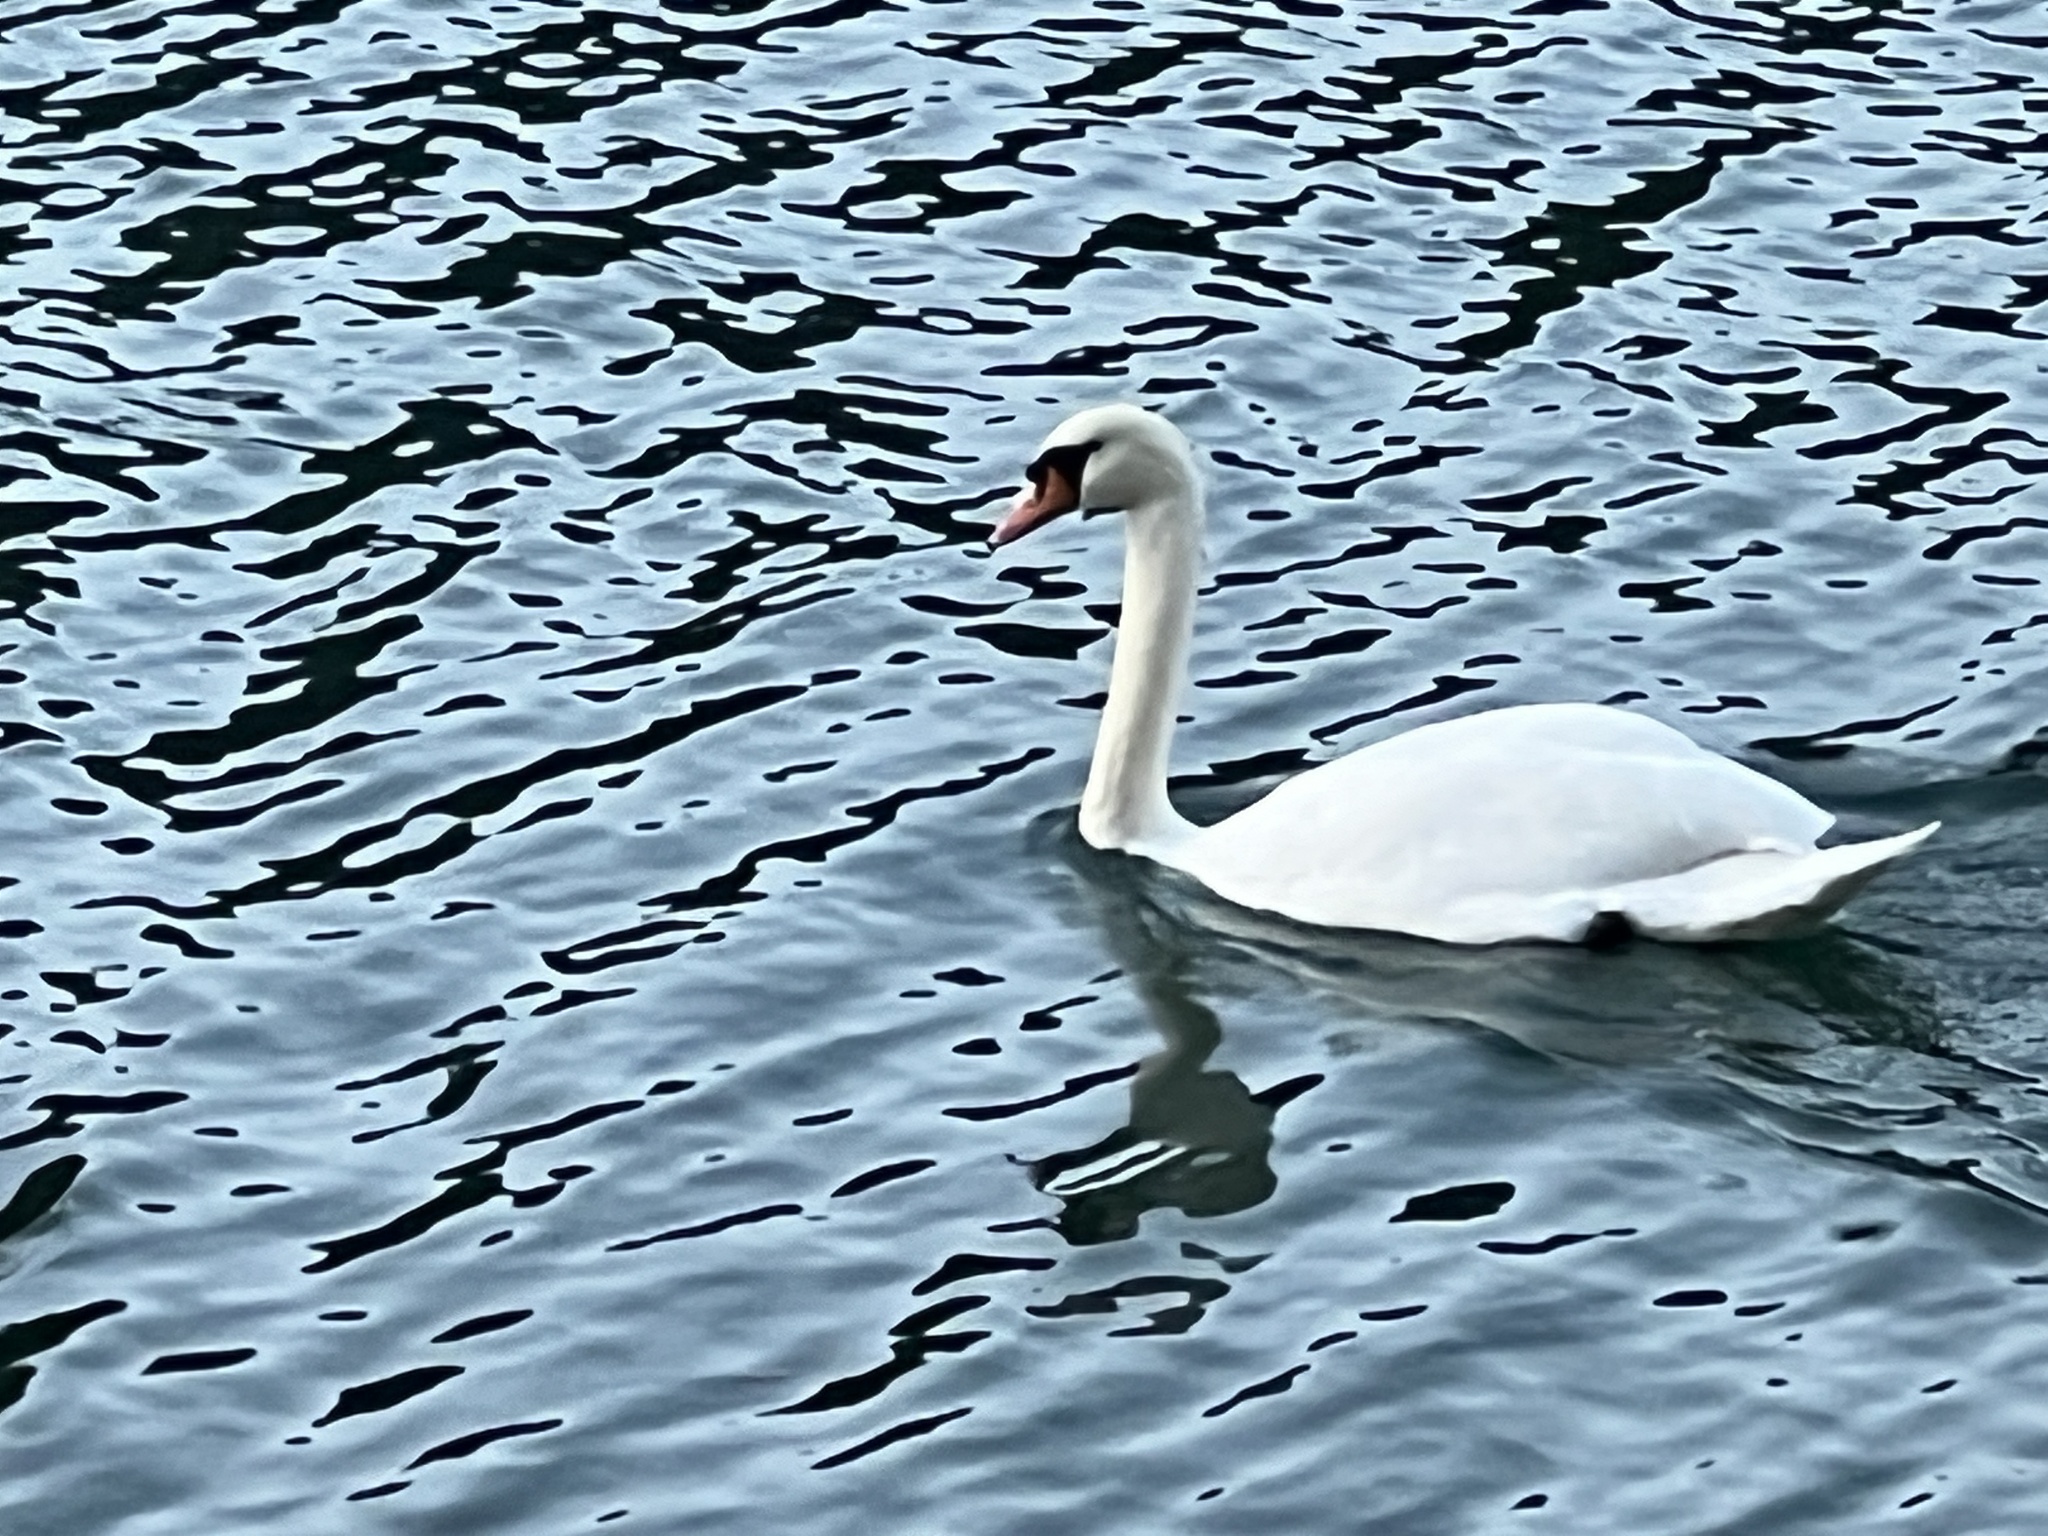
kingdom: Animalia
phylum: Chordata
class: Aves
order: Anseriformes
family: Anatidae
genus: Cygnus
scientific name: Cygnus olor
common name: Mute swan
